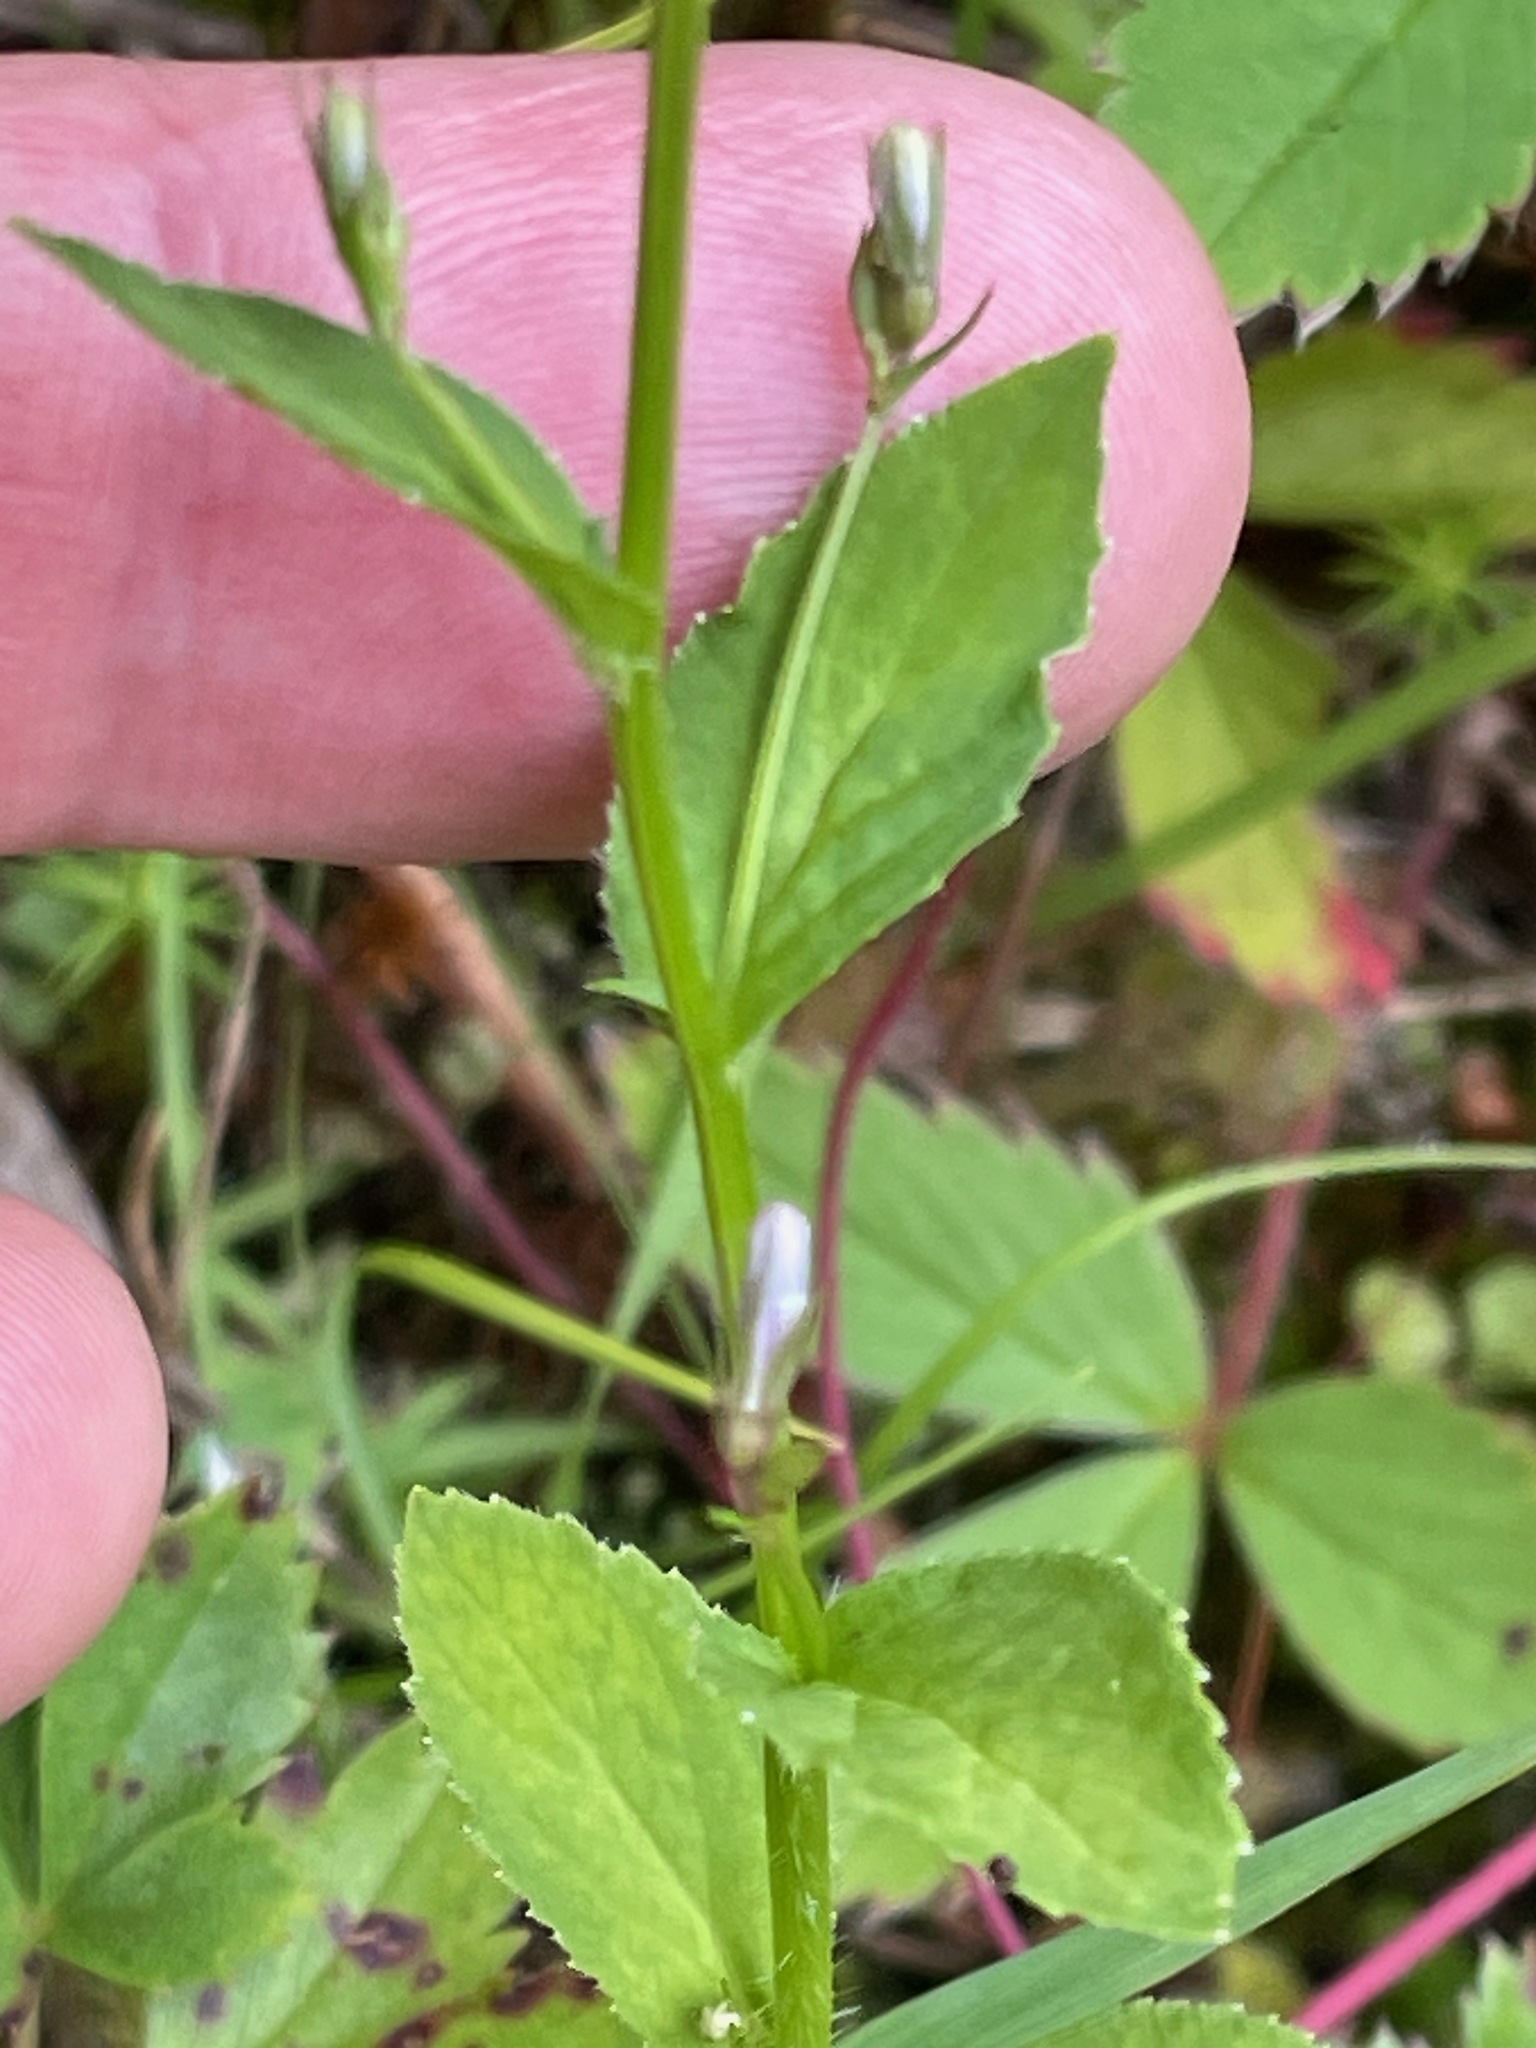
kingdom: Plantae
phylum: Tracheophyta
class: Magnoliopsida
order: Asterales
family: Campanulaceae
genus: Lobelia
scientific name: Lobelia inflata
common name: Indian tobacco
